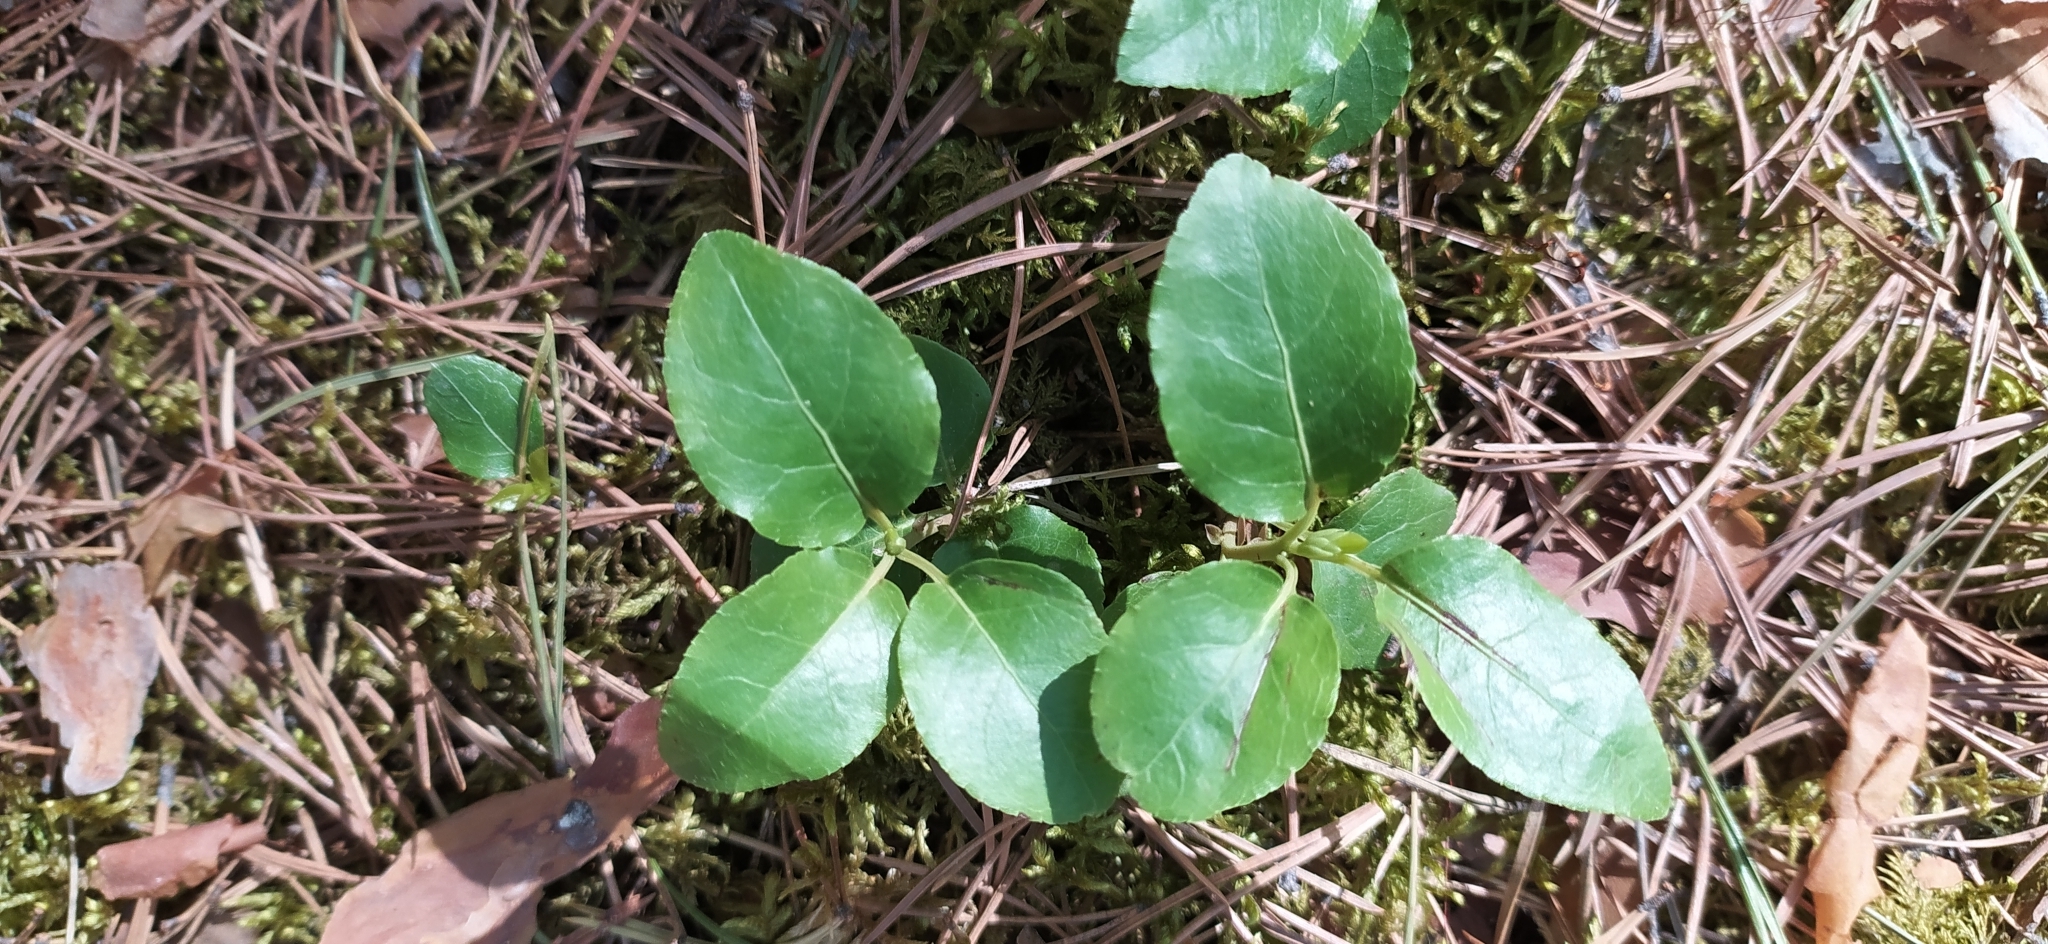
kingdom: Plantae
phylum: Tracheophyta
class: Magnoliopsida
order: Ericales
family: Ericaceae
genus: Orthilia
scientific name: Orthilia secunda
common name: One-sided orthilia
